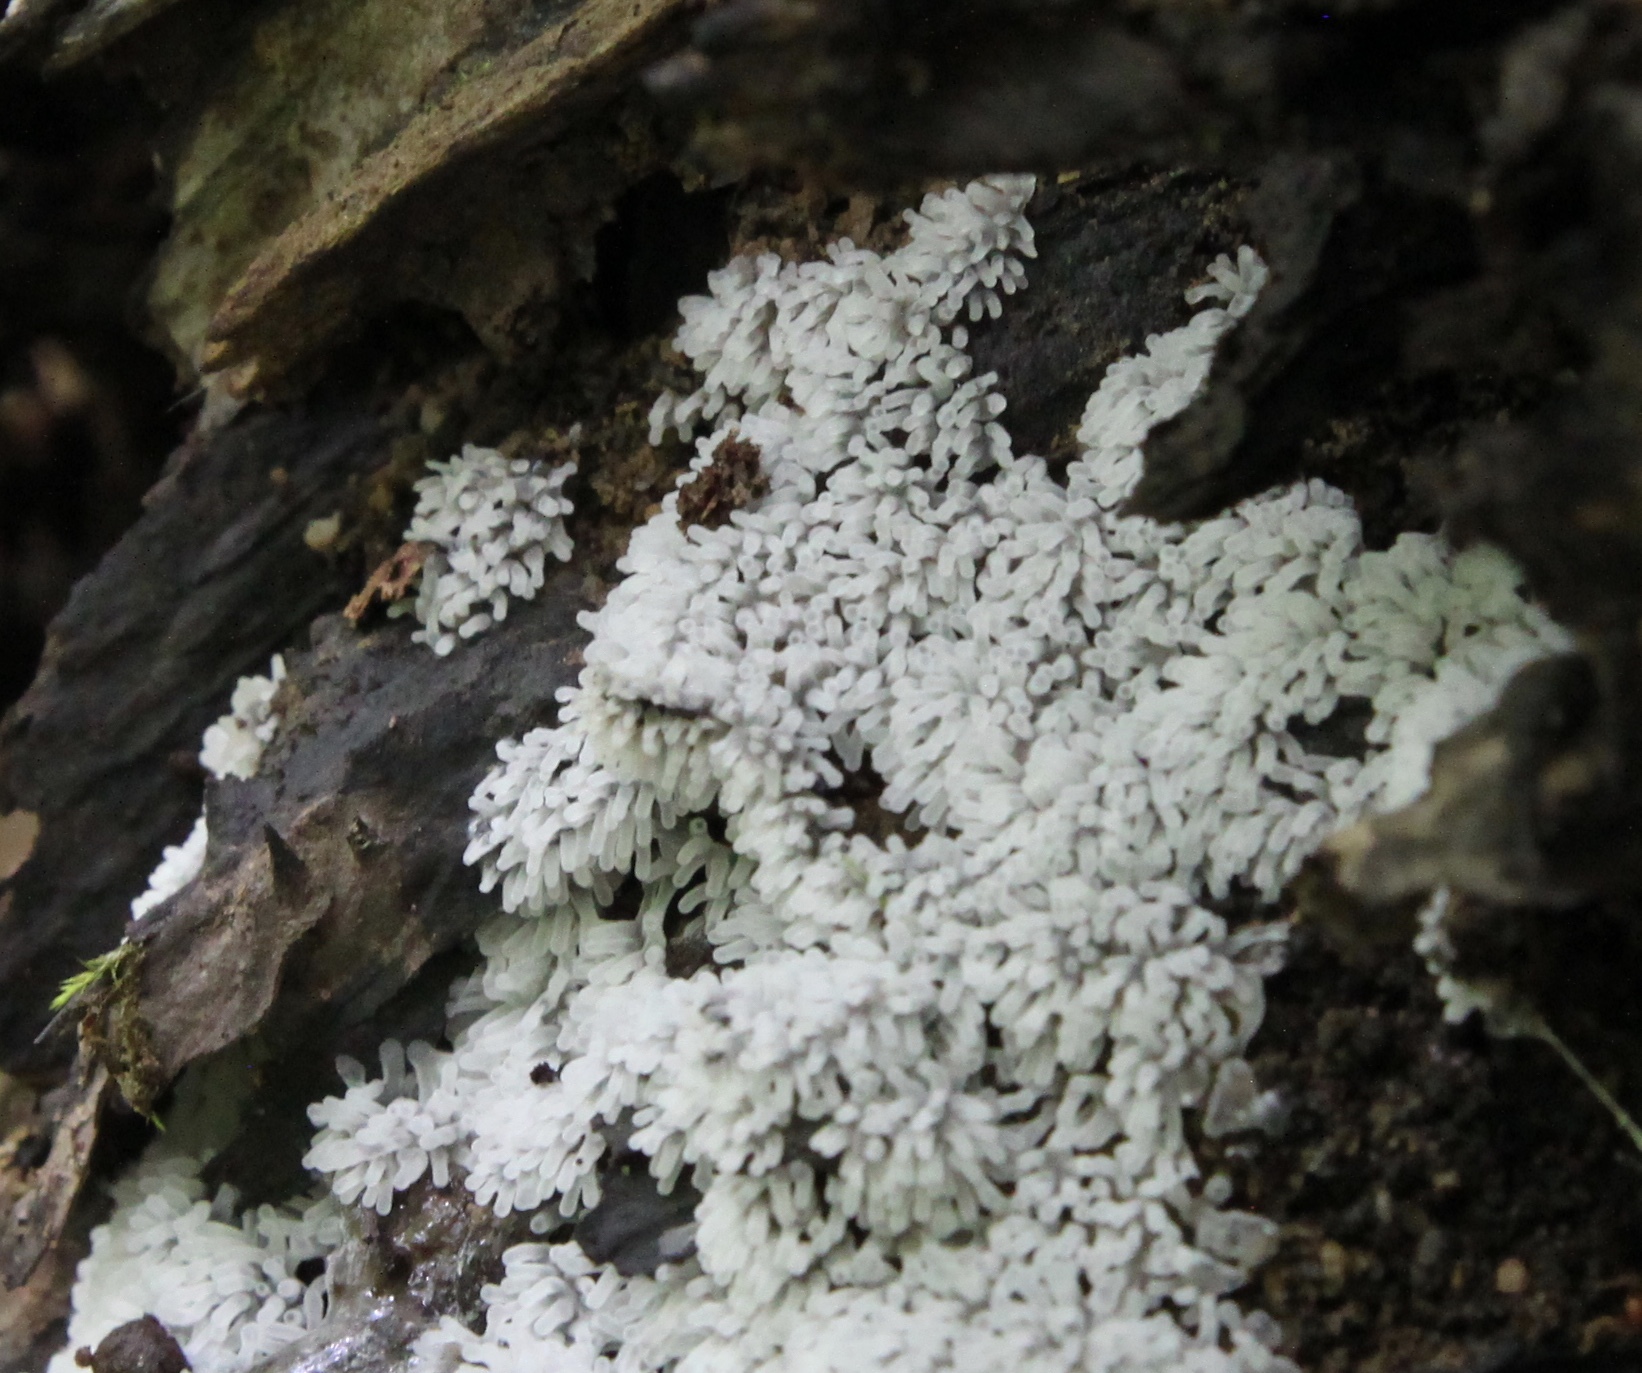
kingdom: Protozoa
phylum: Mycetozoa
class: Protosteliomycetes
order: Ceratiomyxales
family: Ceratiomyxaceae
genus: Ceratiomyxa
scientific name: Ceratiomyxa fruticulosa
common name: Honeycomb coral slime mold
